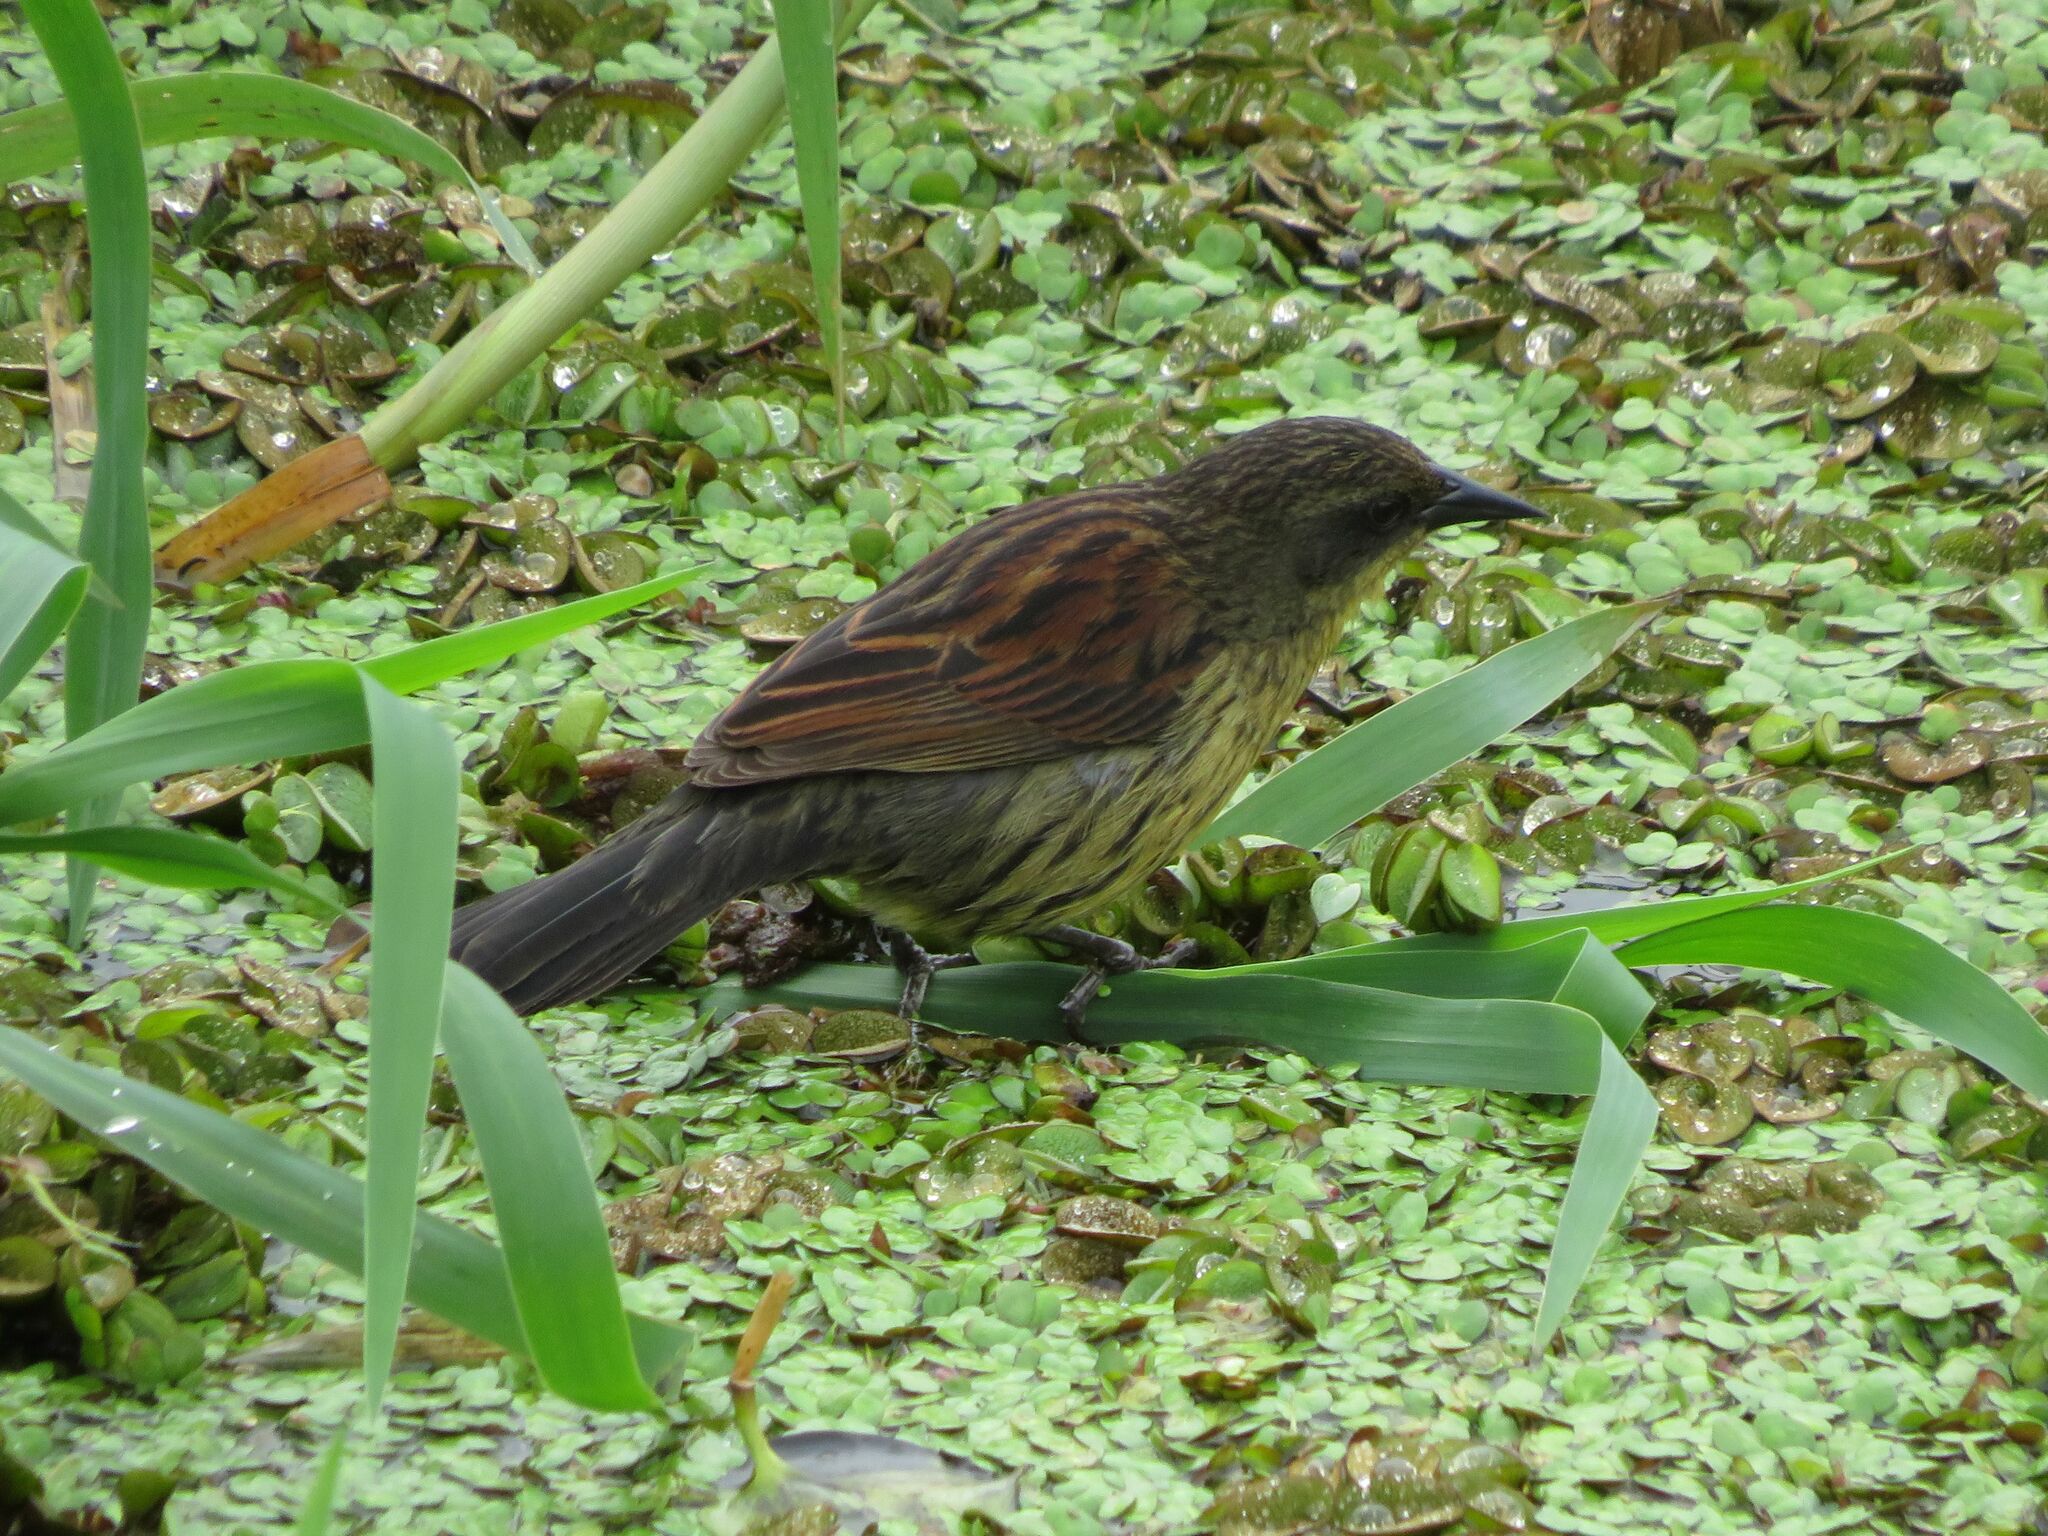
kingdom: Animalia
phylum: Chordata
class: Aves
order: Passeriformes
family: Icteridae
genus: Agelasticus
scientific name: Agelasticus cyanopus
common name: Unicolored blackbird
